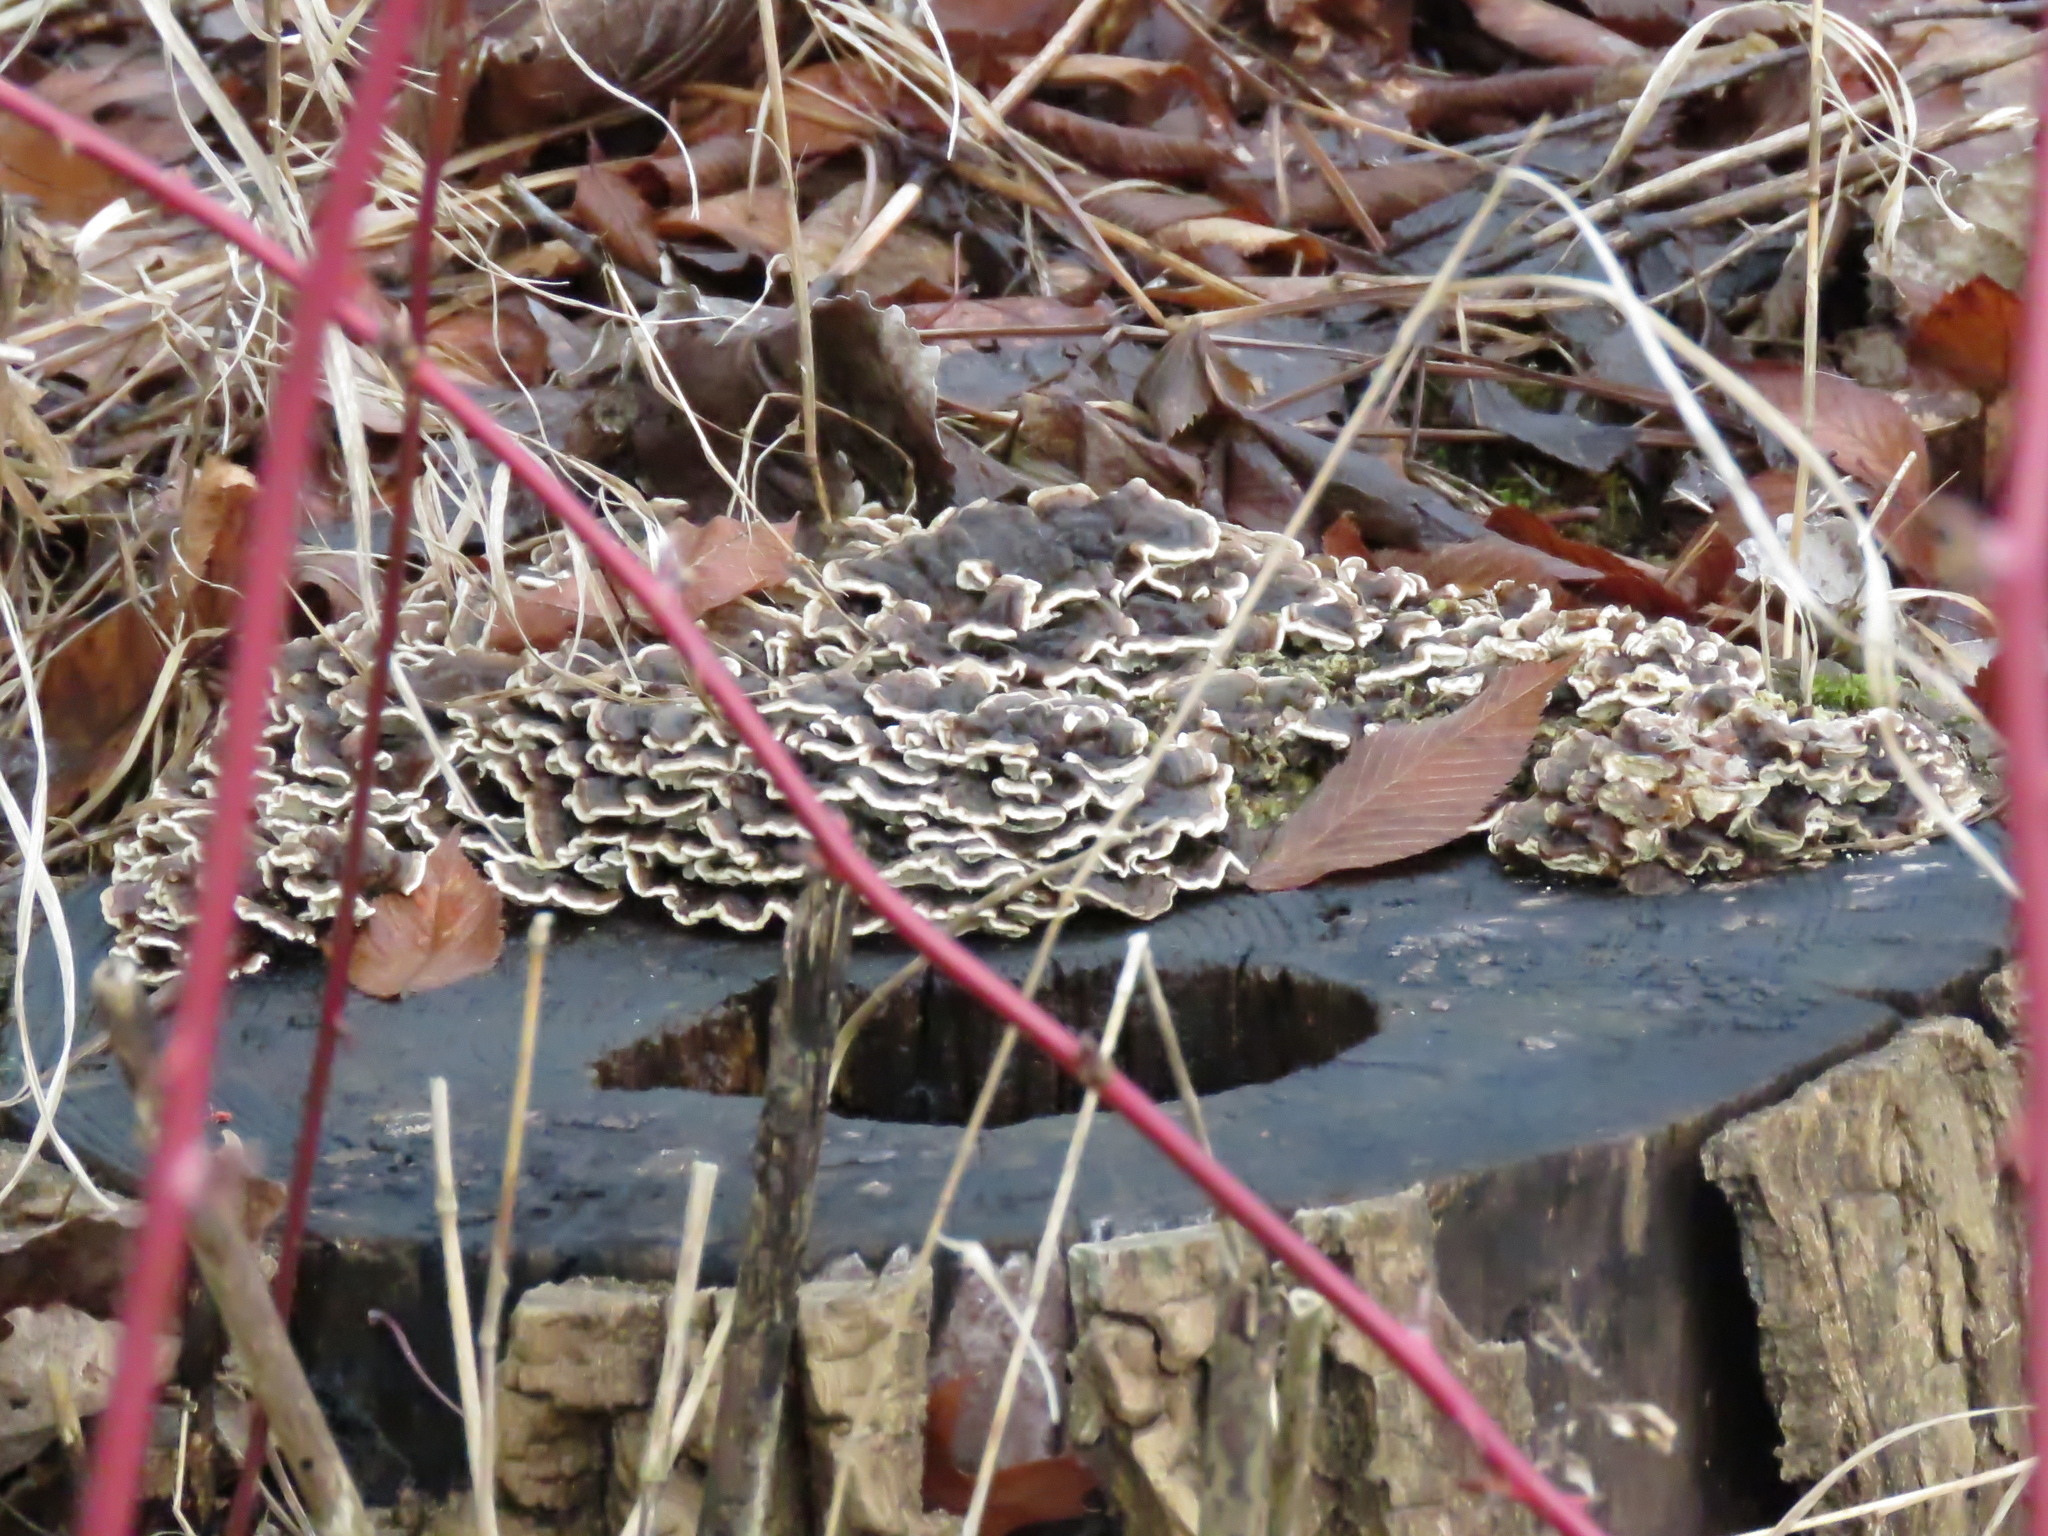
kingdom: Fungi
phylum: Basidiomycota
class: Agaricomycetes
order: Polyporales
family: Polyporaceae
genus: Trametes
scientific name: Trametes versicolor
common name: Turkeytail
